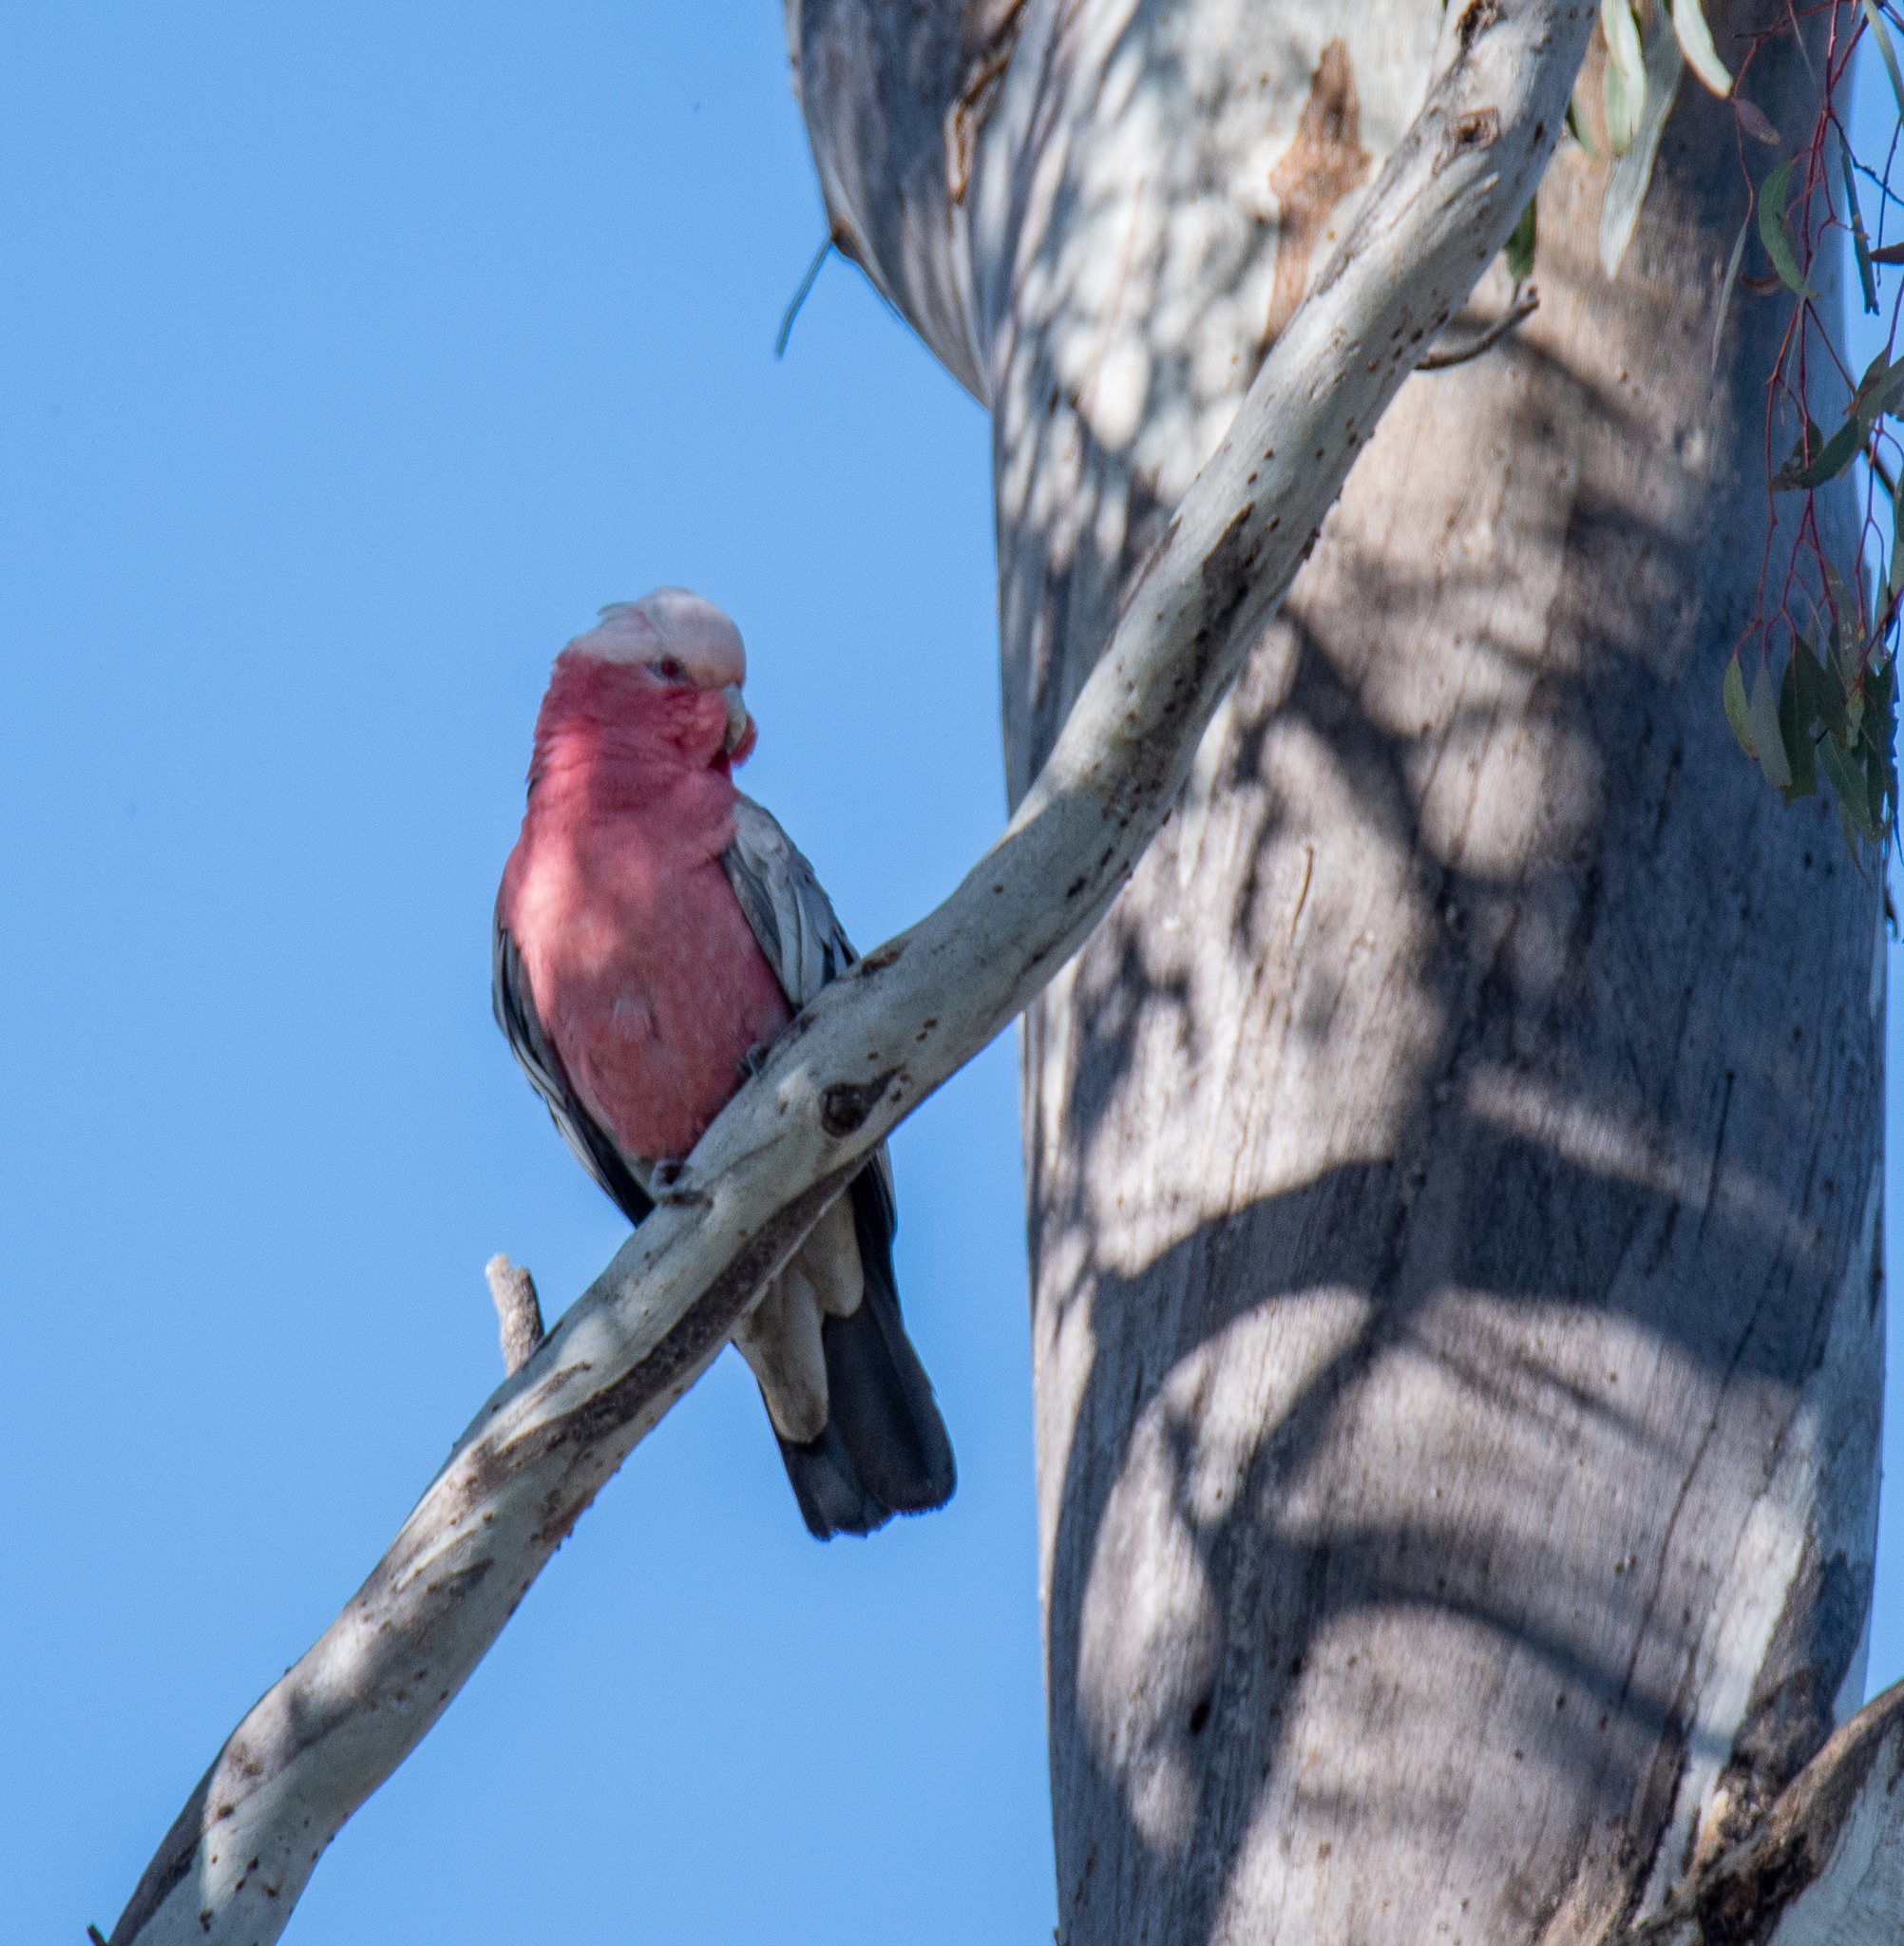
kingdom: Animalia
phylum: Chordata
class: Aves
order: Psittaciformes
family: Psittacidae
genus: Eolophus
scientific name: Eolophus roseicapilla
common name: Galah
